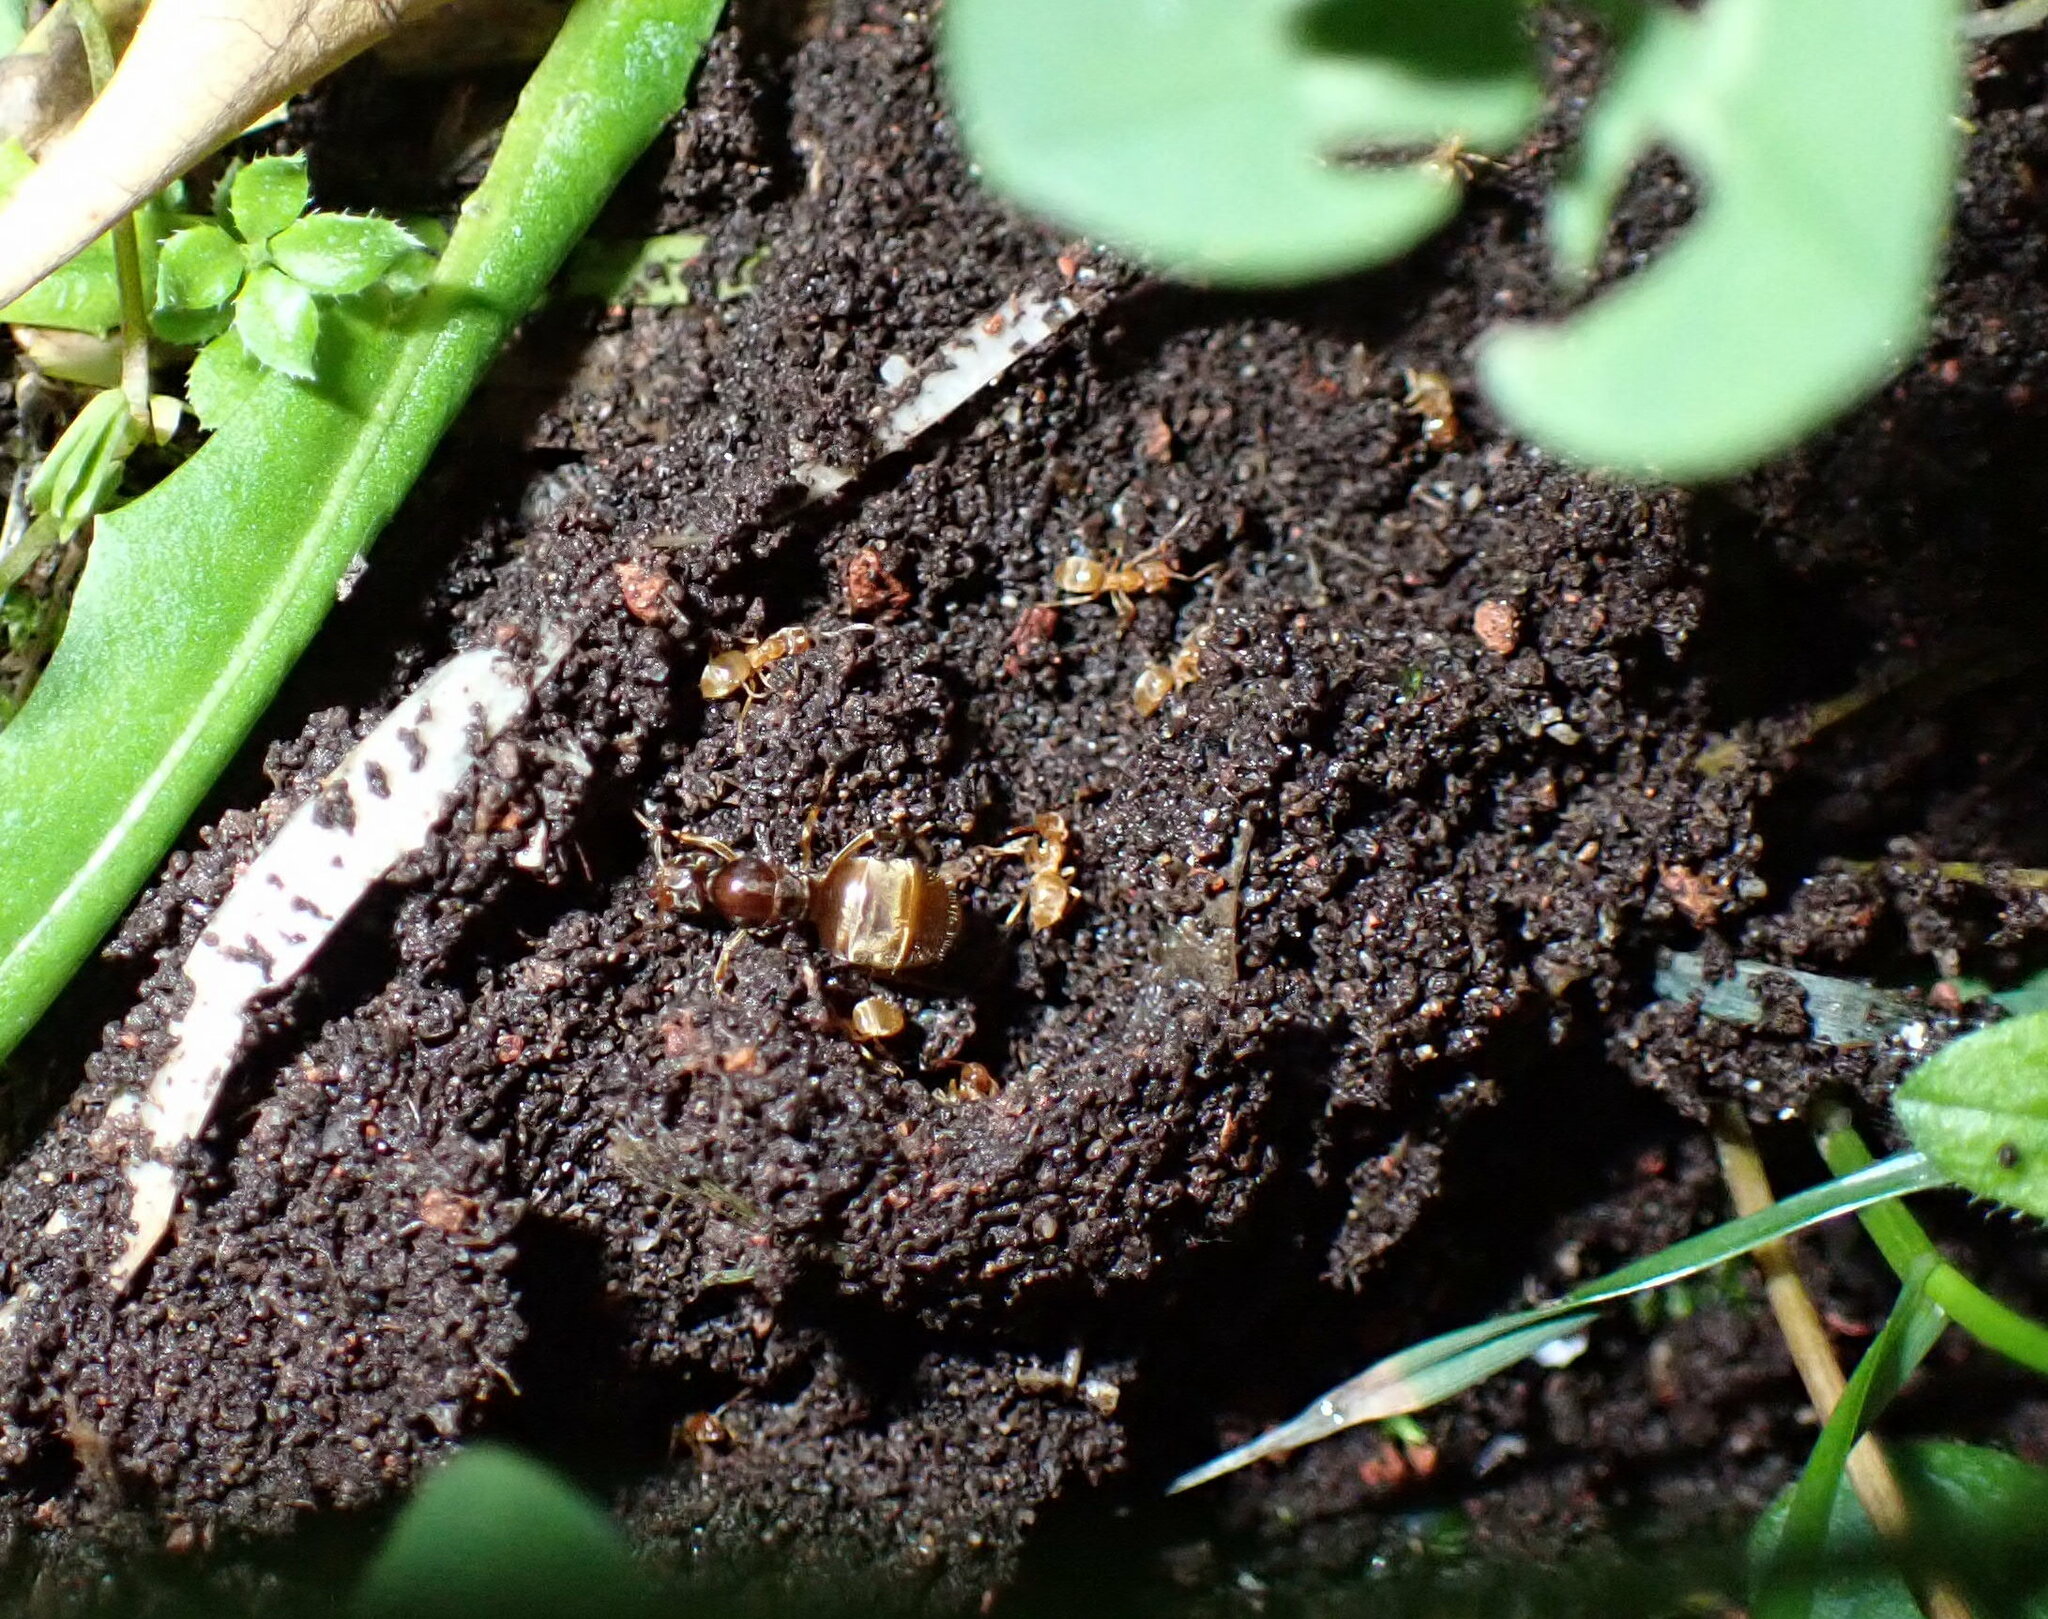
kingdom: Animalia
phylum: Arthropoda
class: Insecta
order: Hymenoptera
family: Formicidae
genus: Lasius
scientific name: Lasius flavus
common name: Blond field ant
